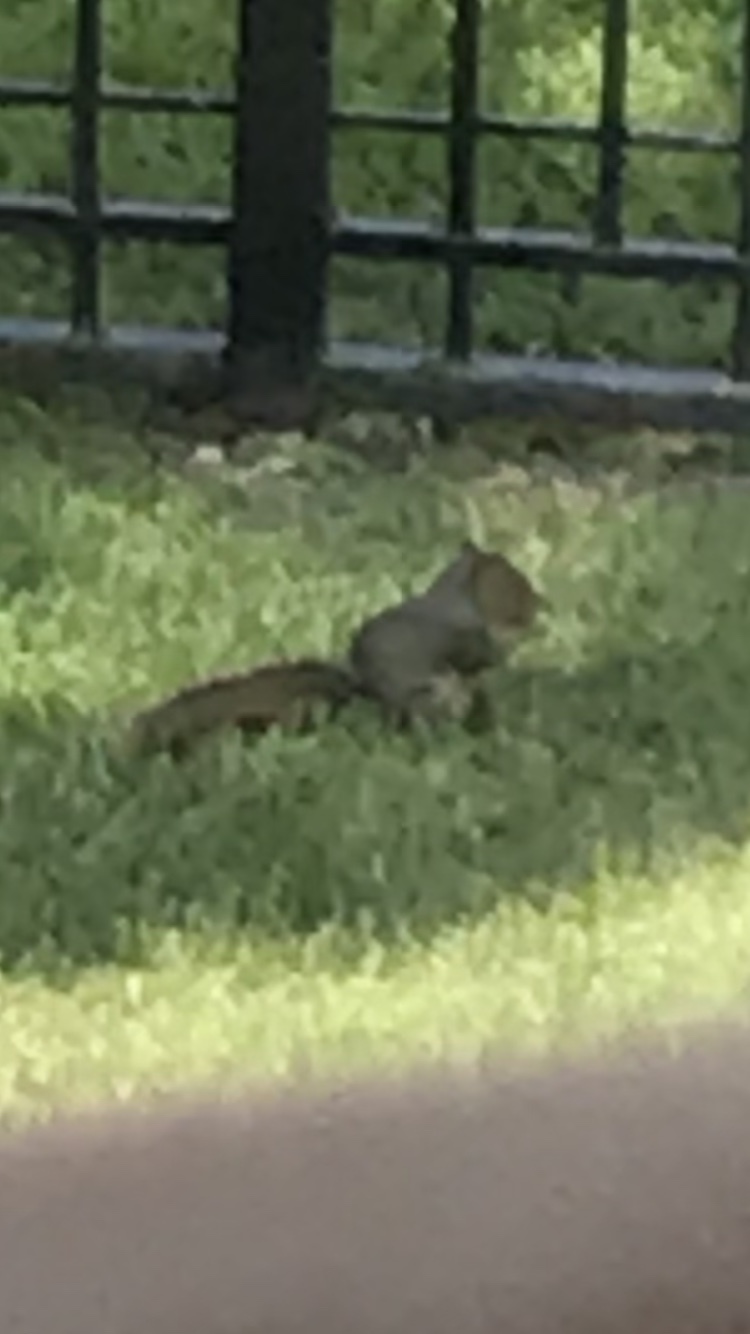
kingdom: Animalia
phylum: Chordata
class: Mammalia
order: Rodentia
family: Sciuridae
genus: Sciurus
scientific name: Sciurus niger
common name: Fox squirrel
